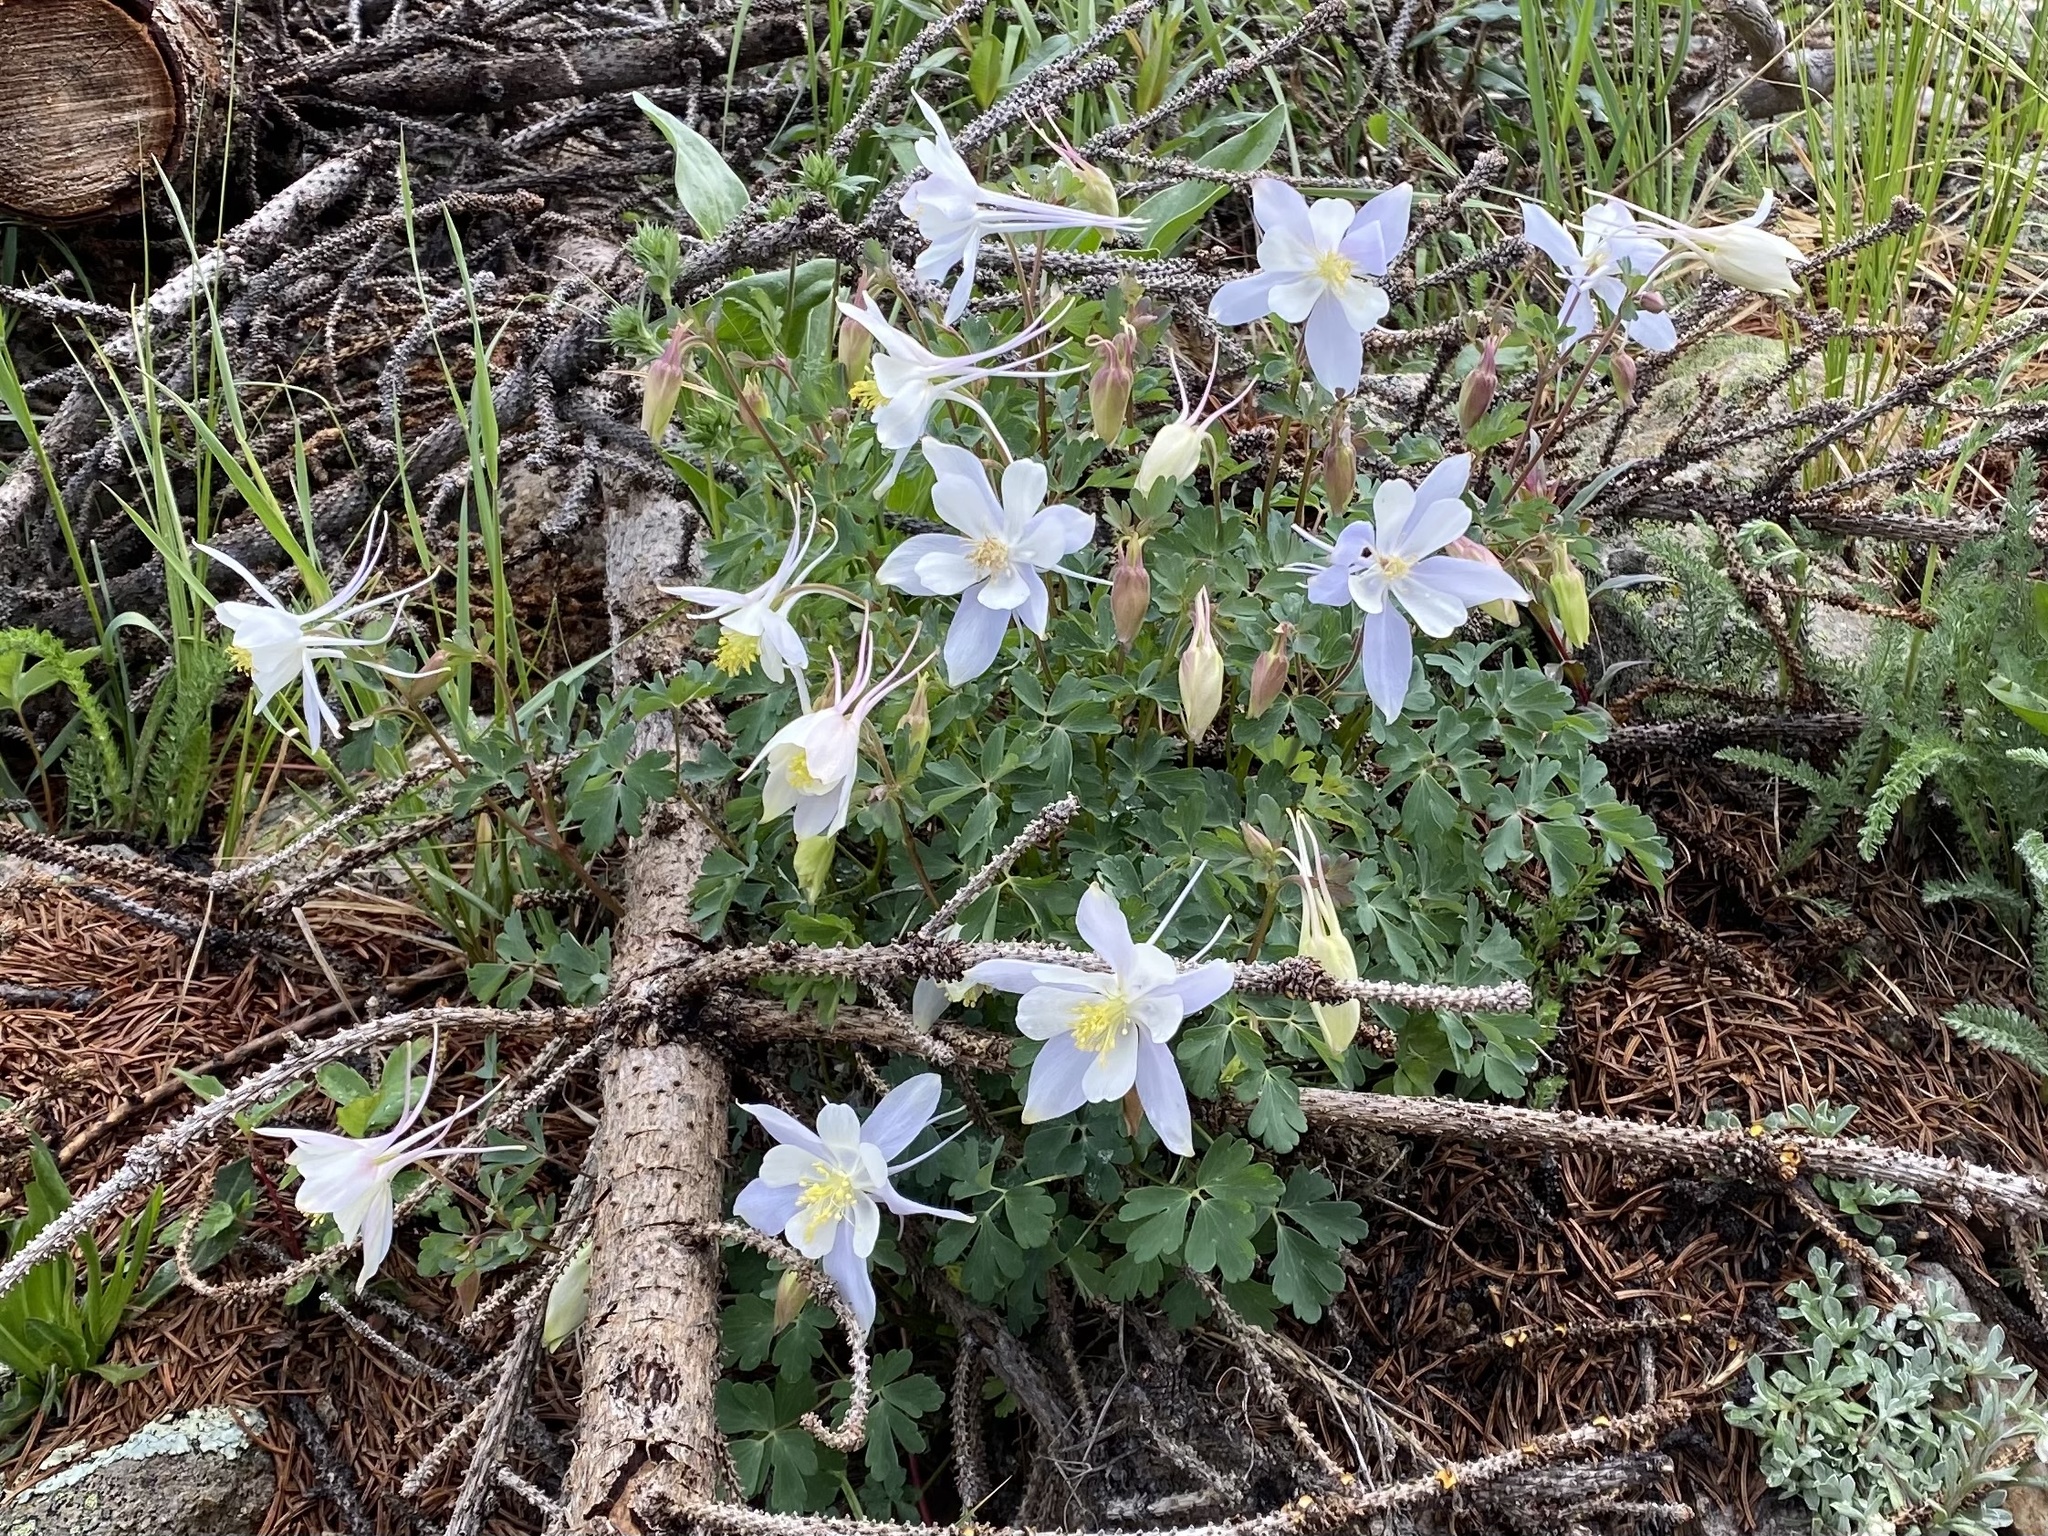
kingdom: Plantae
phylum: Tracheophyta
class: Magnoliopsida
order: Ranunculales
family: Ranunculaceae
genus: Aquilegia
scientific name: Aquilegia coerulea
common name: Rocky mountain columbine
